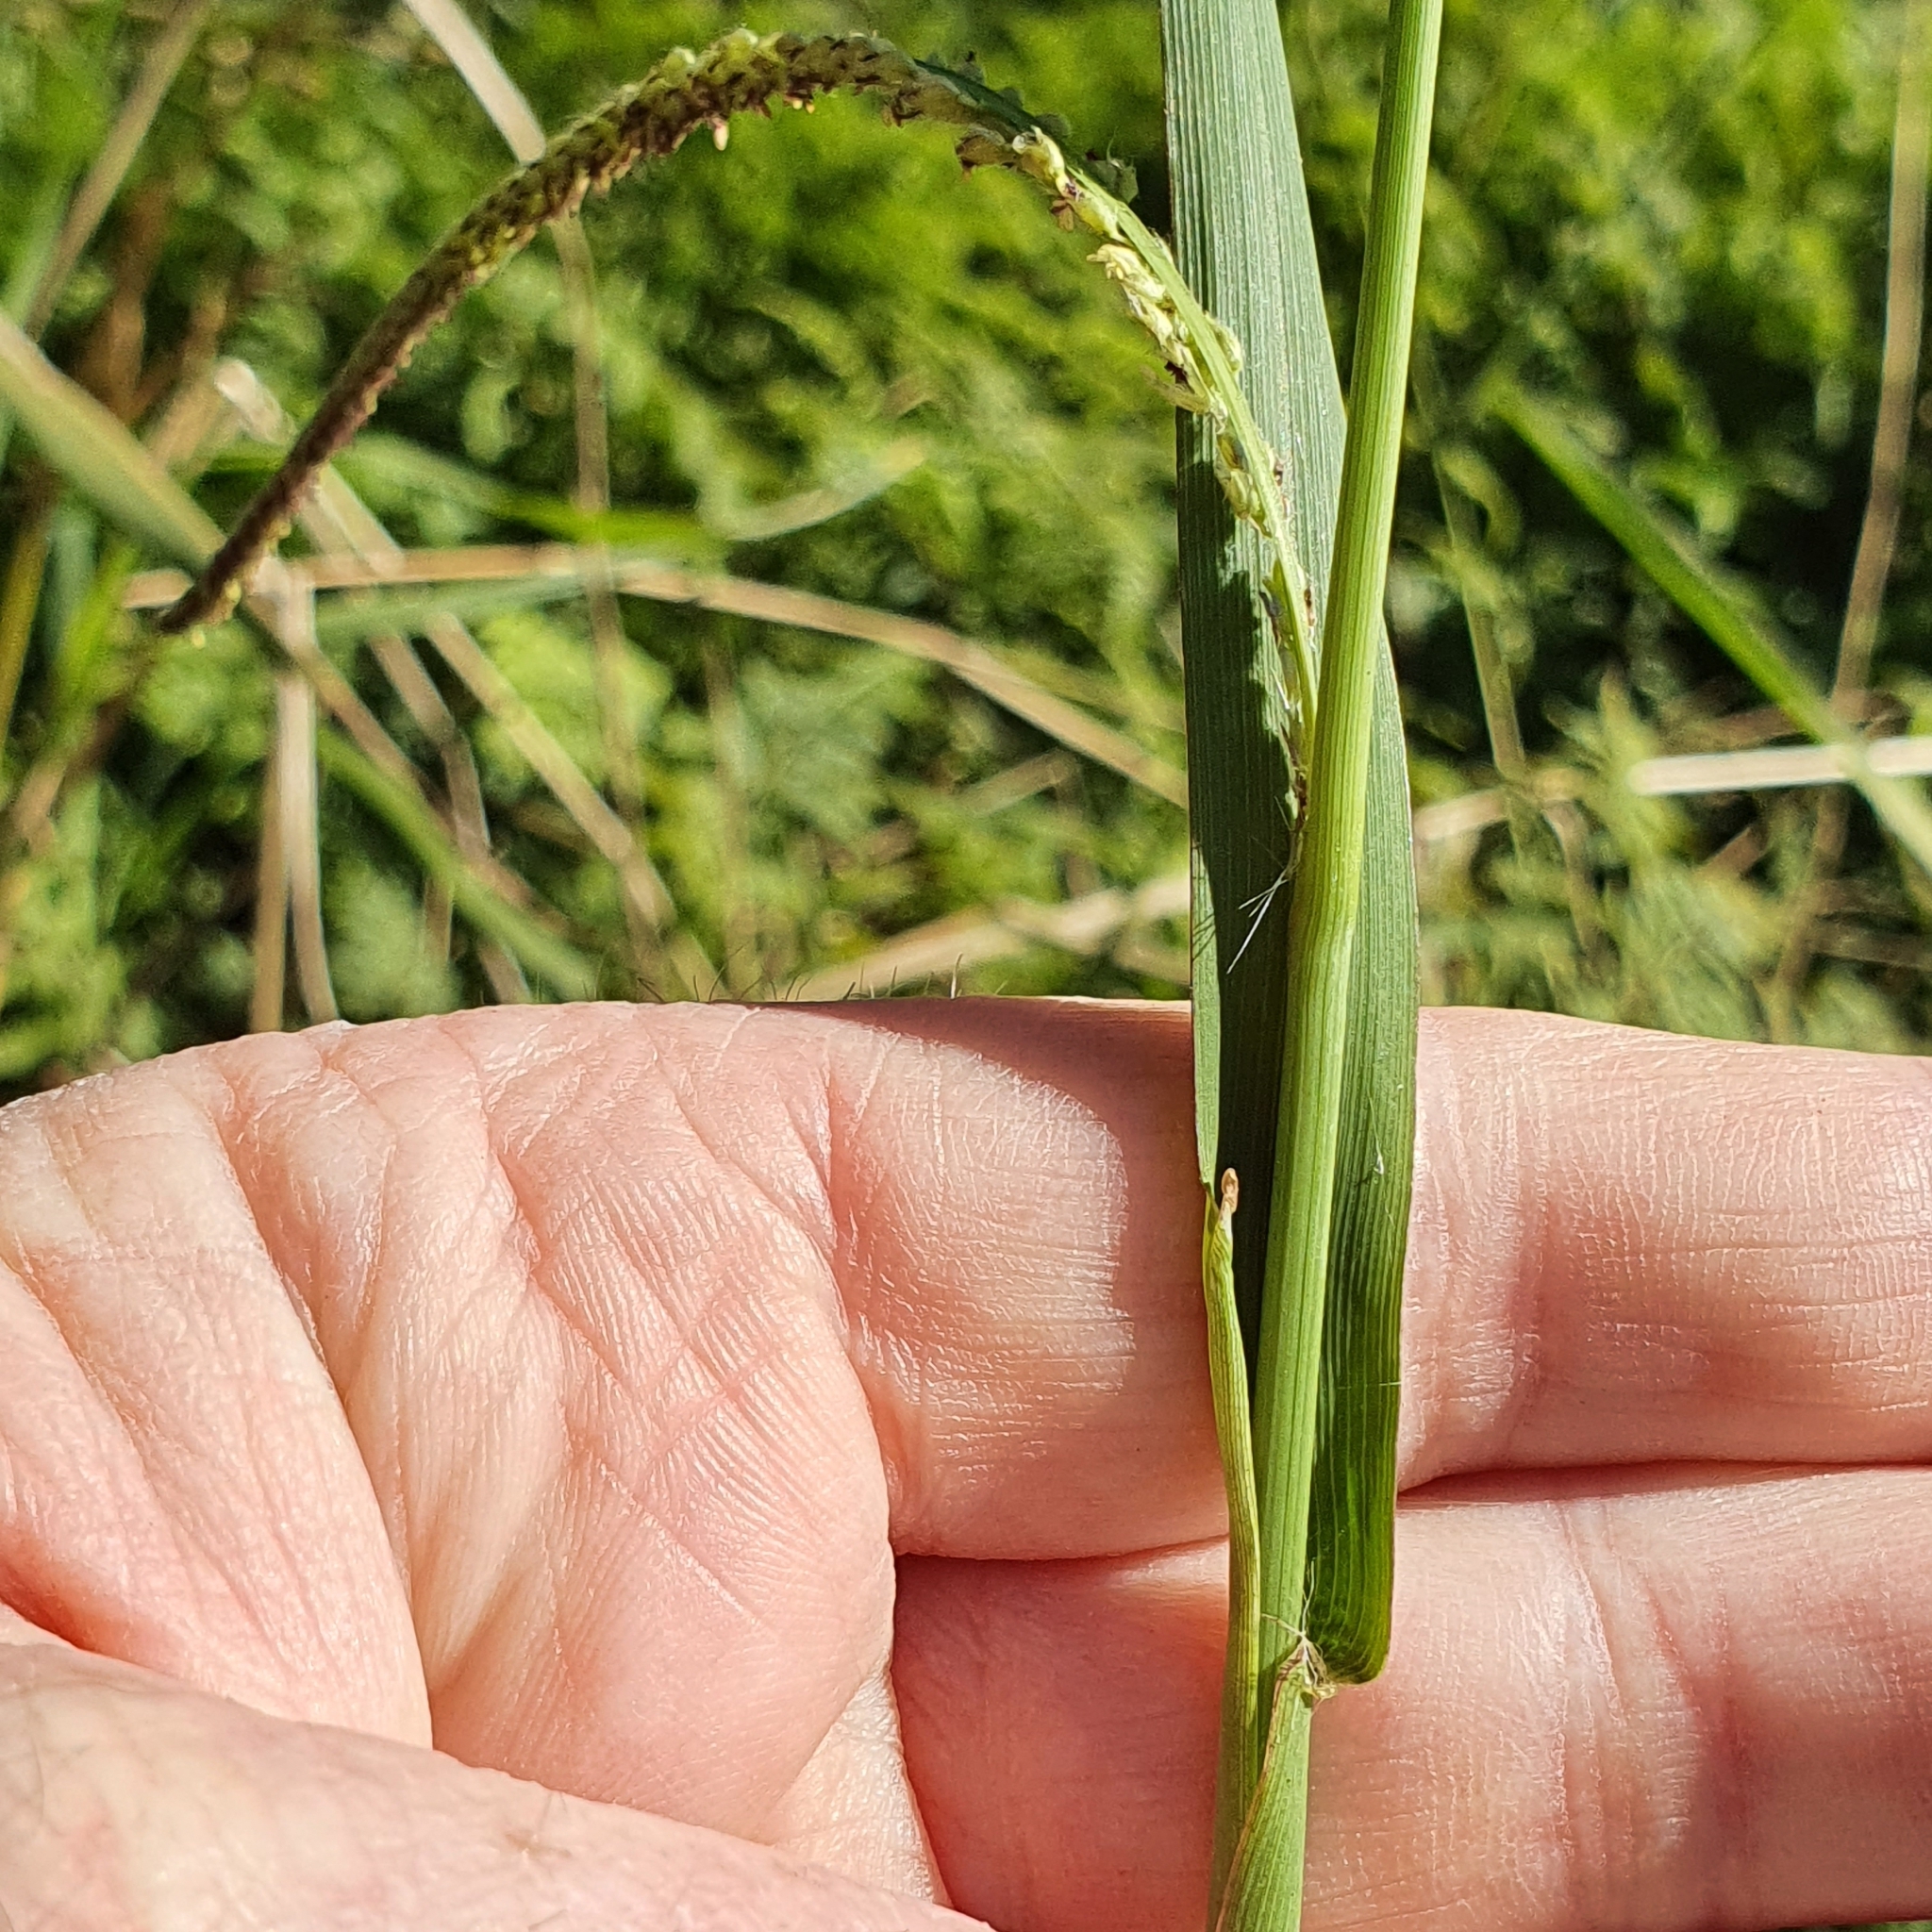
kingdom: Plantae
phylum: Tracheophyta
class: Liliopsida
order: Poales
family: Poaceae
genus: Paspalum
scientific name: Paspalum urvillei
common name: Vasey's grass
